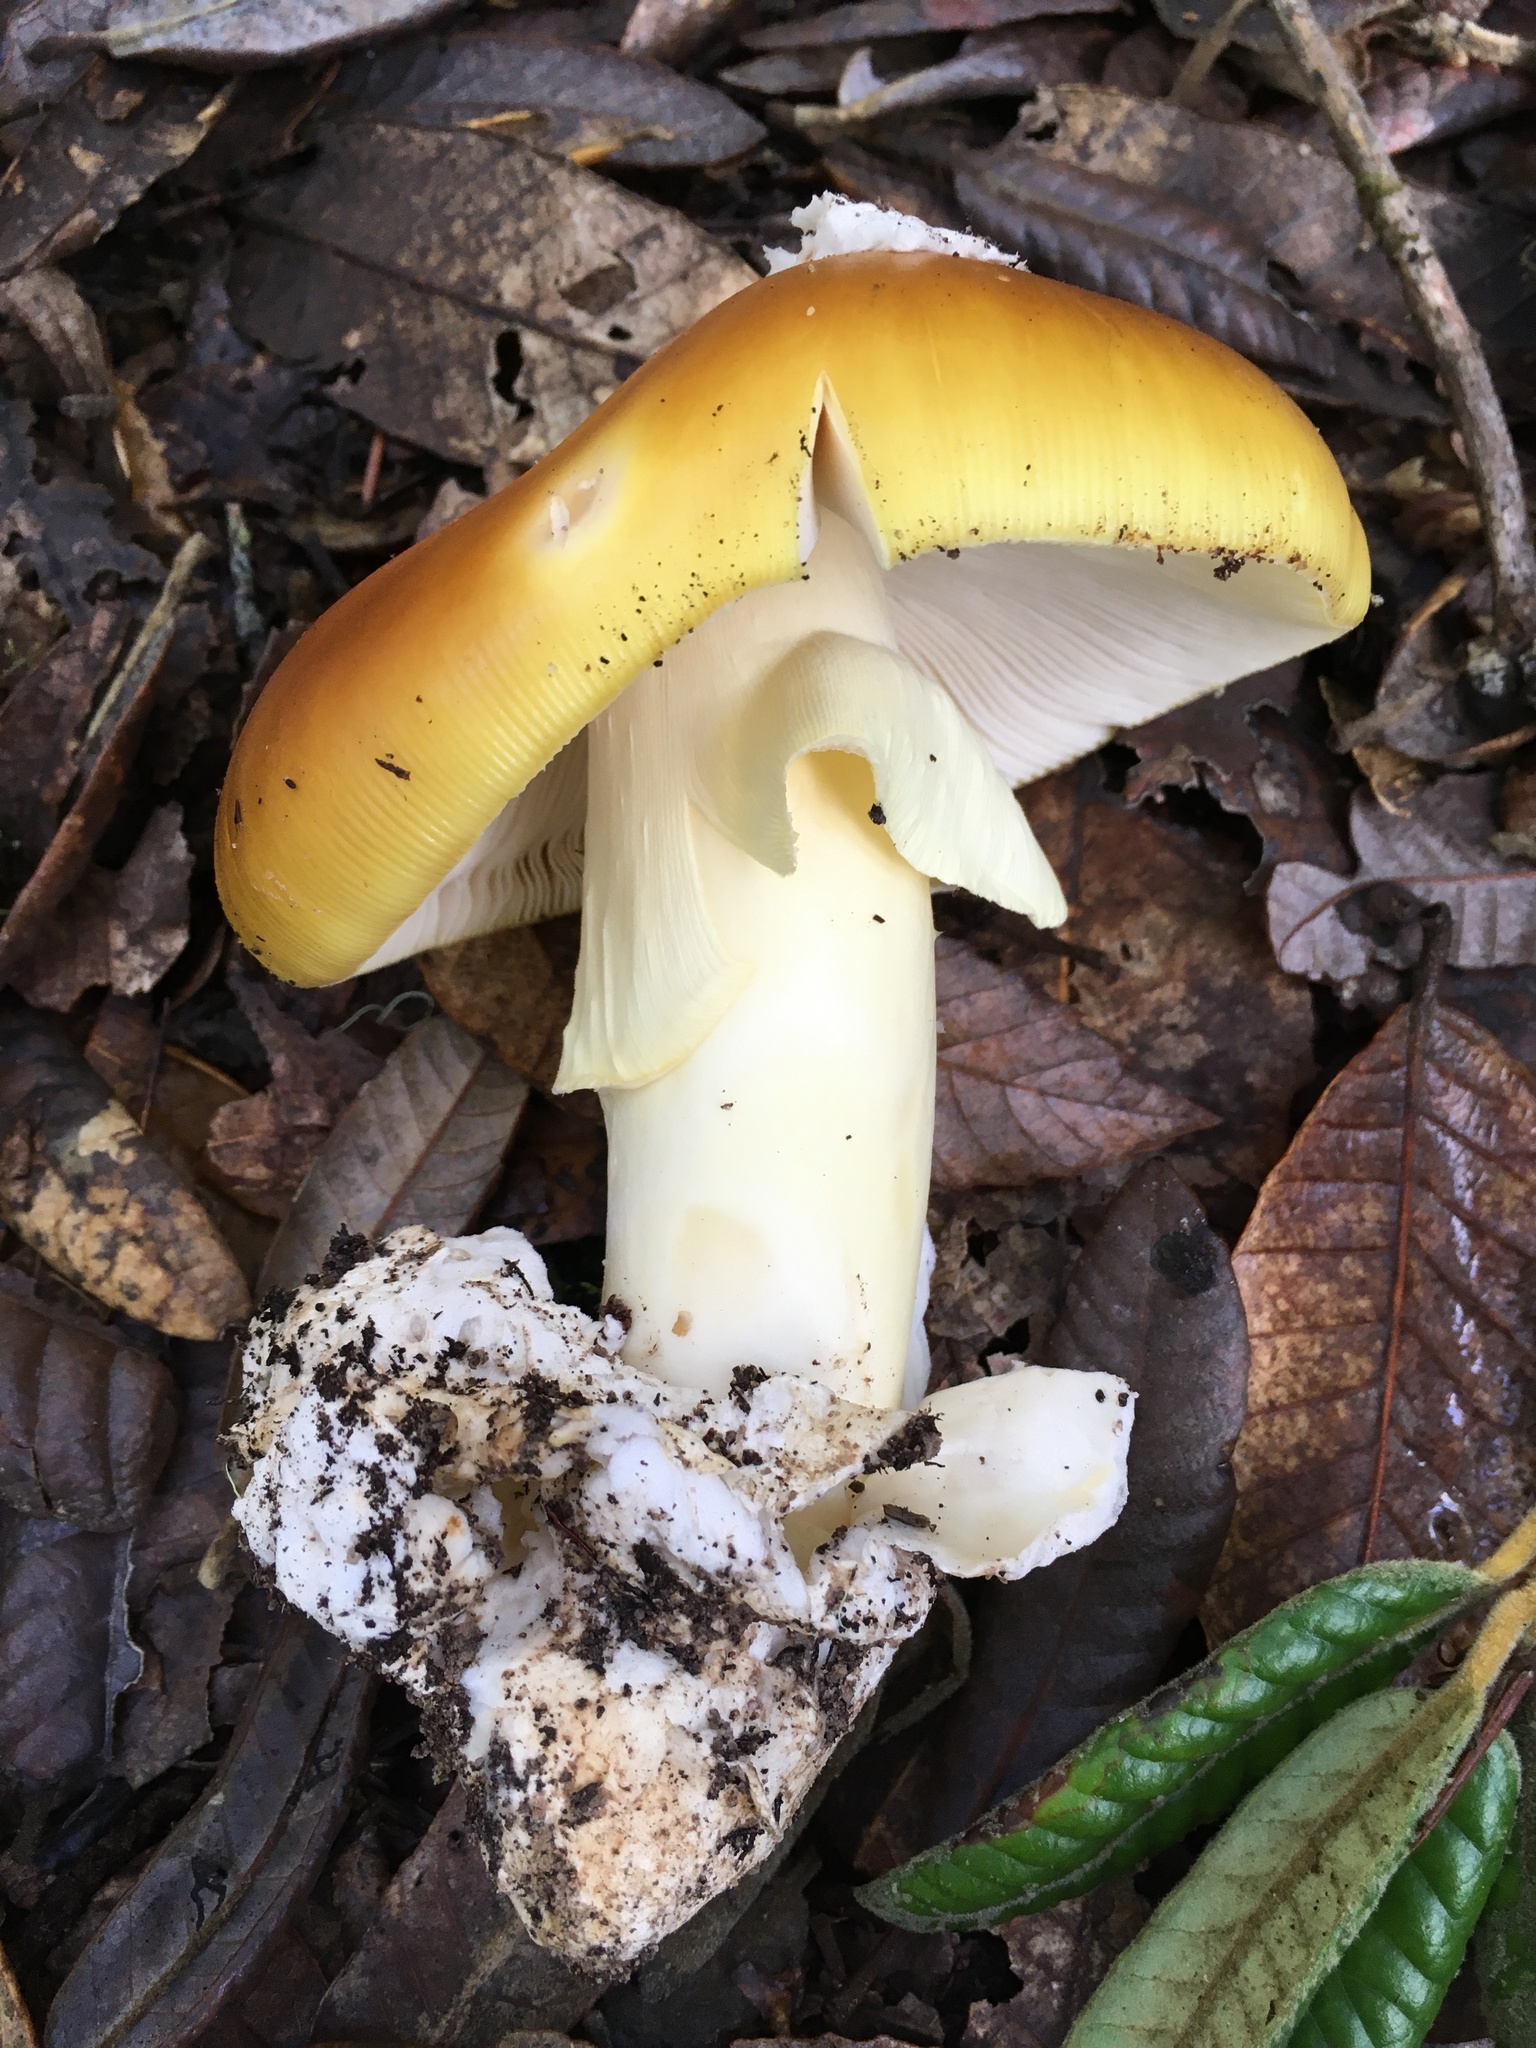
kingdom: Fungi
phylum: Basidiomycota
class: Agaricomycetes
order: Agaricales
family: Amanitaceae
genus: Amanita
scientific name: Amanita calyptroderma
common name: Coccora
